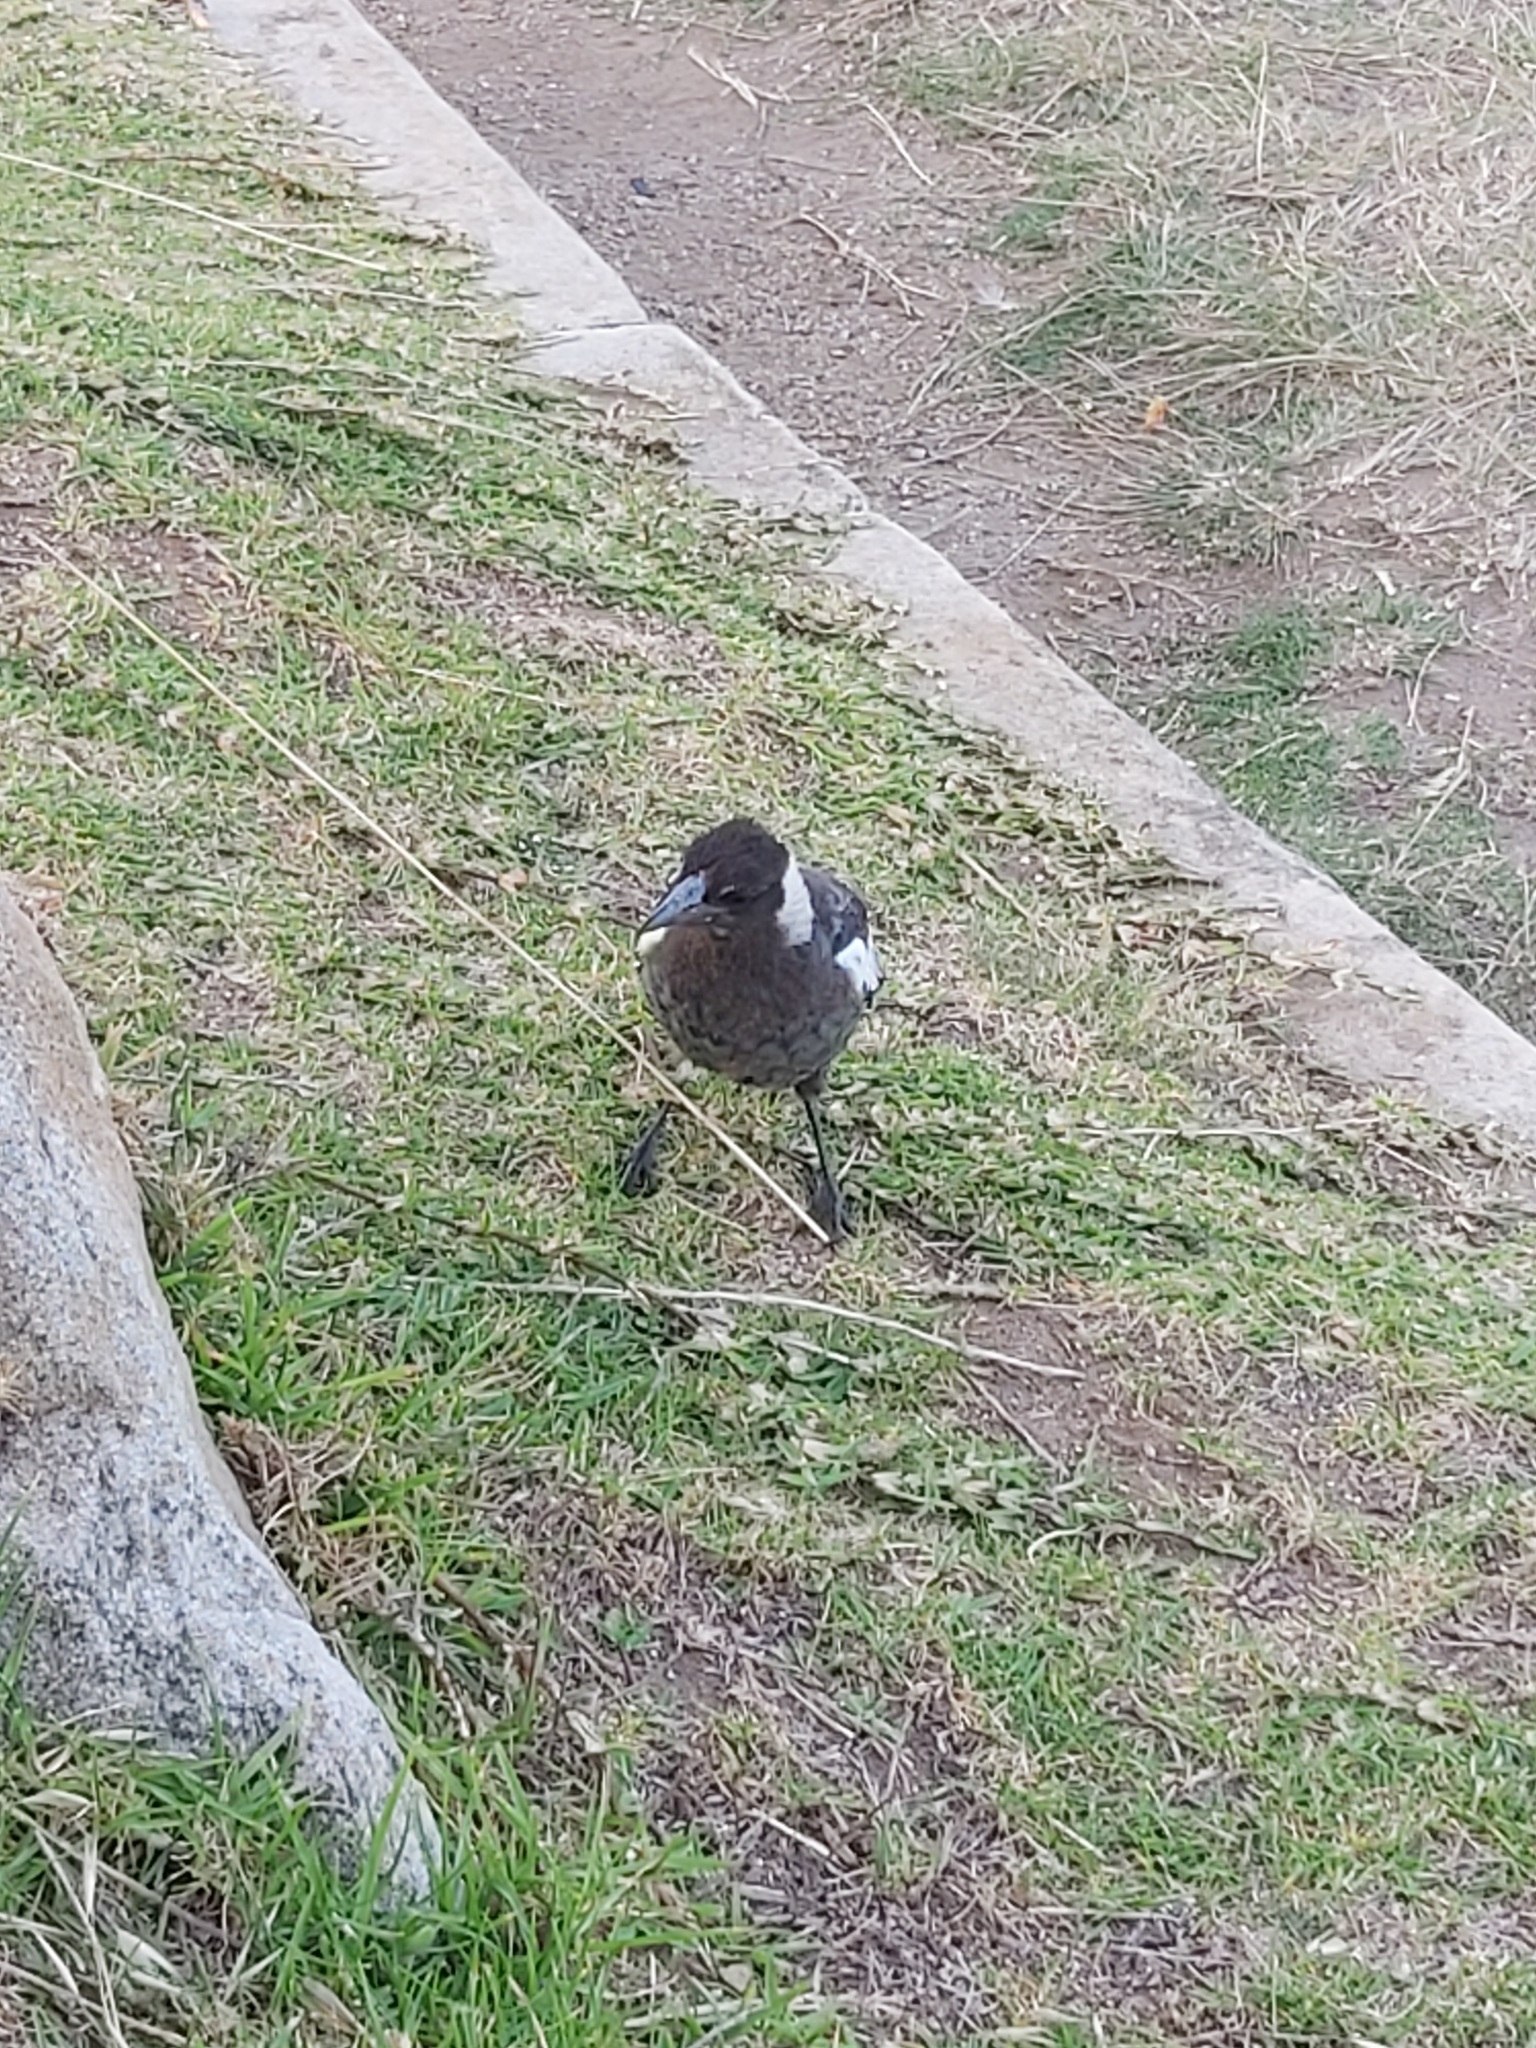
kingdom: Animalia
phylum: Chordata
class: Aves
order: Passeriformes
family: Cracticidae
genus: Gymnorhina
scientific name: Gymnorhina tibicen
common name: Australian magpie
